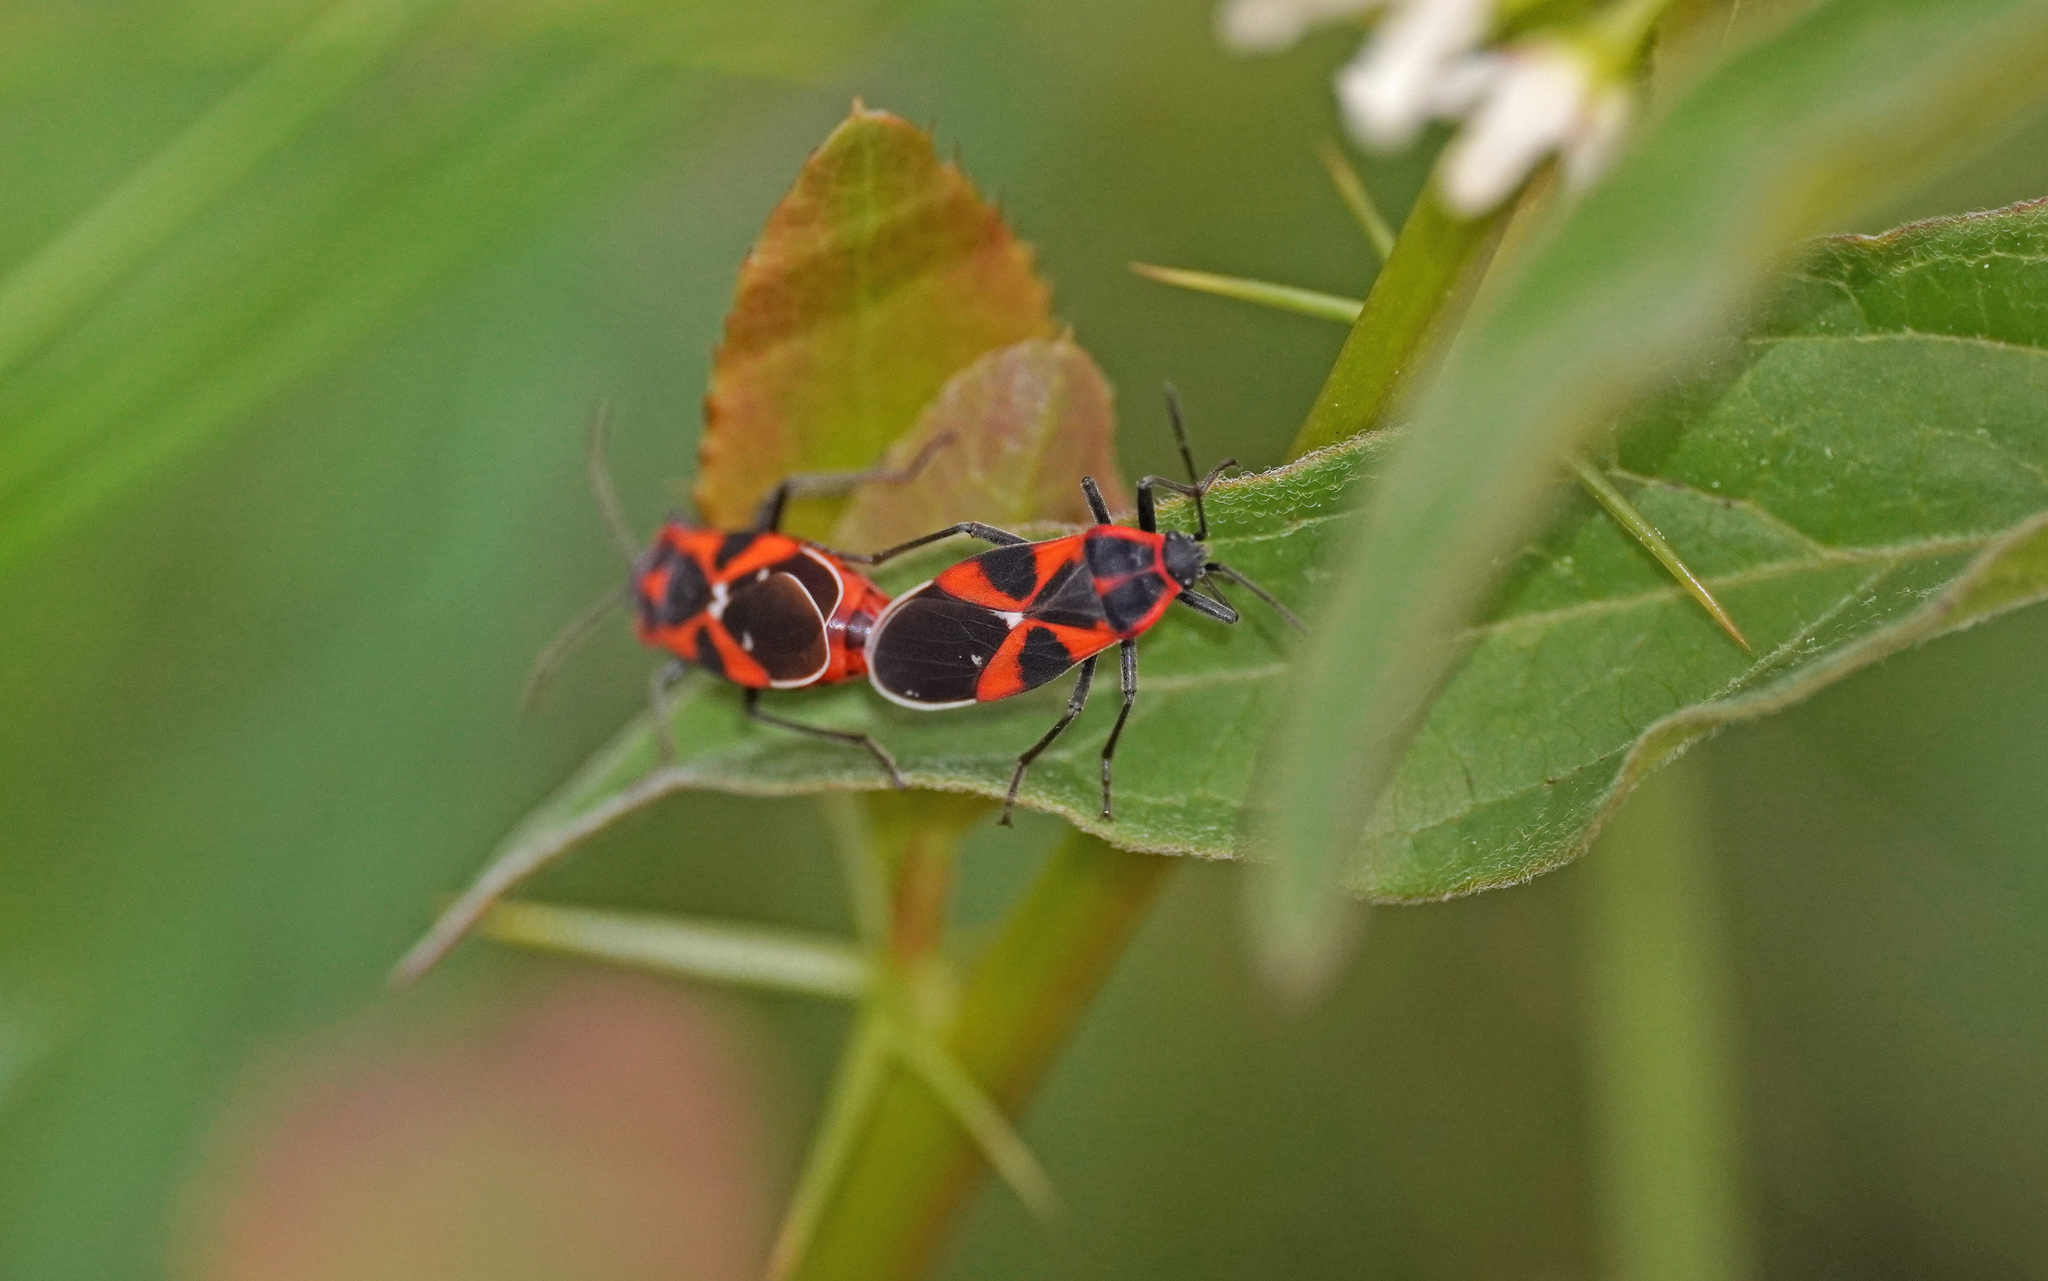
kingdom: Animalia
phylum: Arthropoda
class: Insecta
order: Hemiptera
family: Lygaeidae
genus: Tropidothorax
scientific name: Tropidothorax leucopterus
